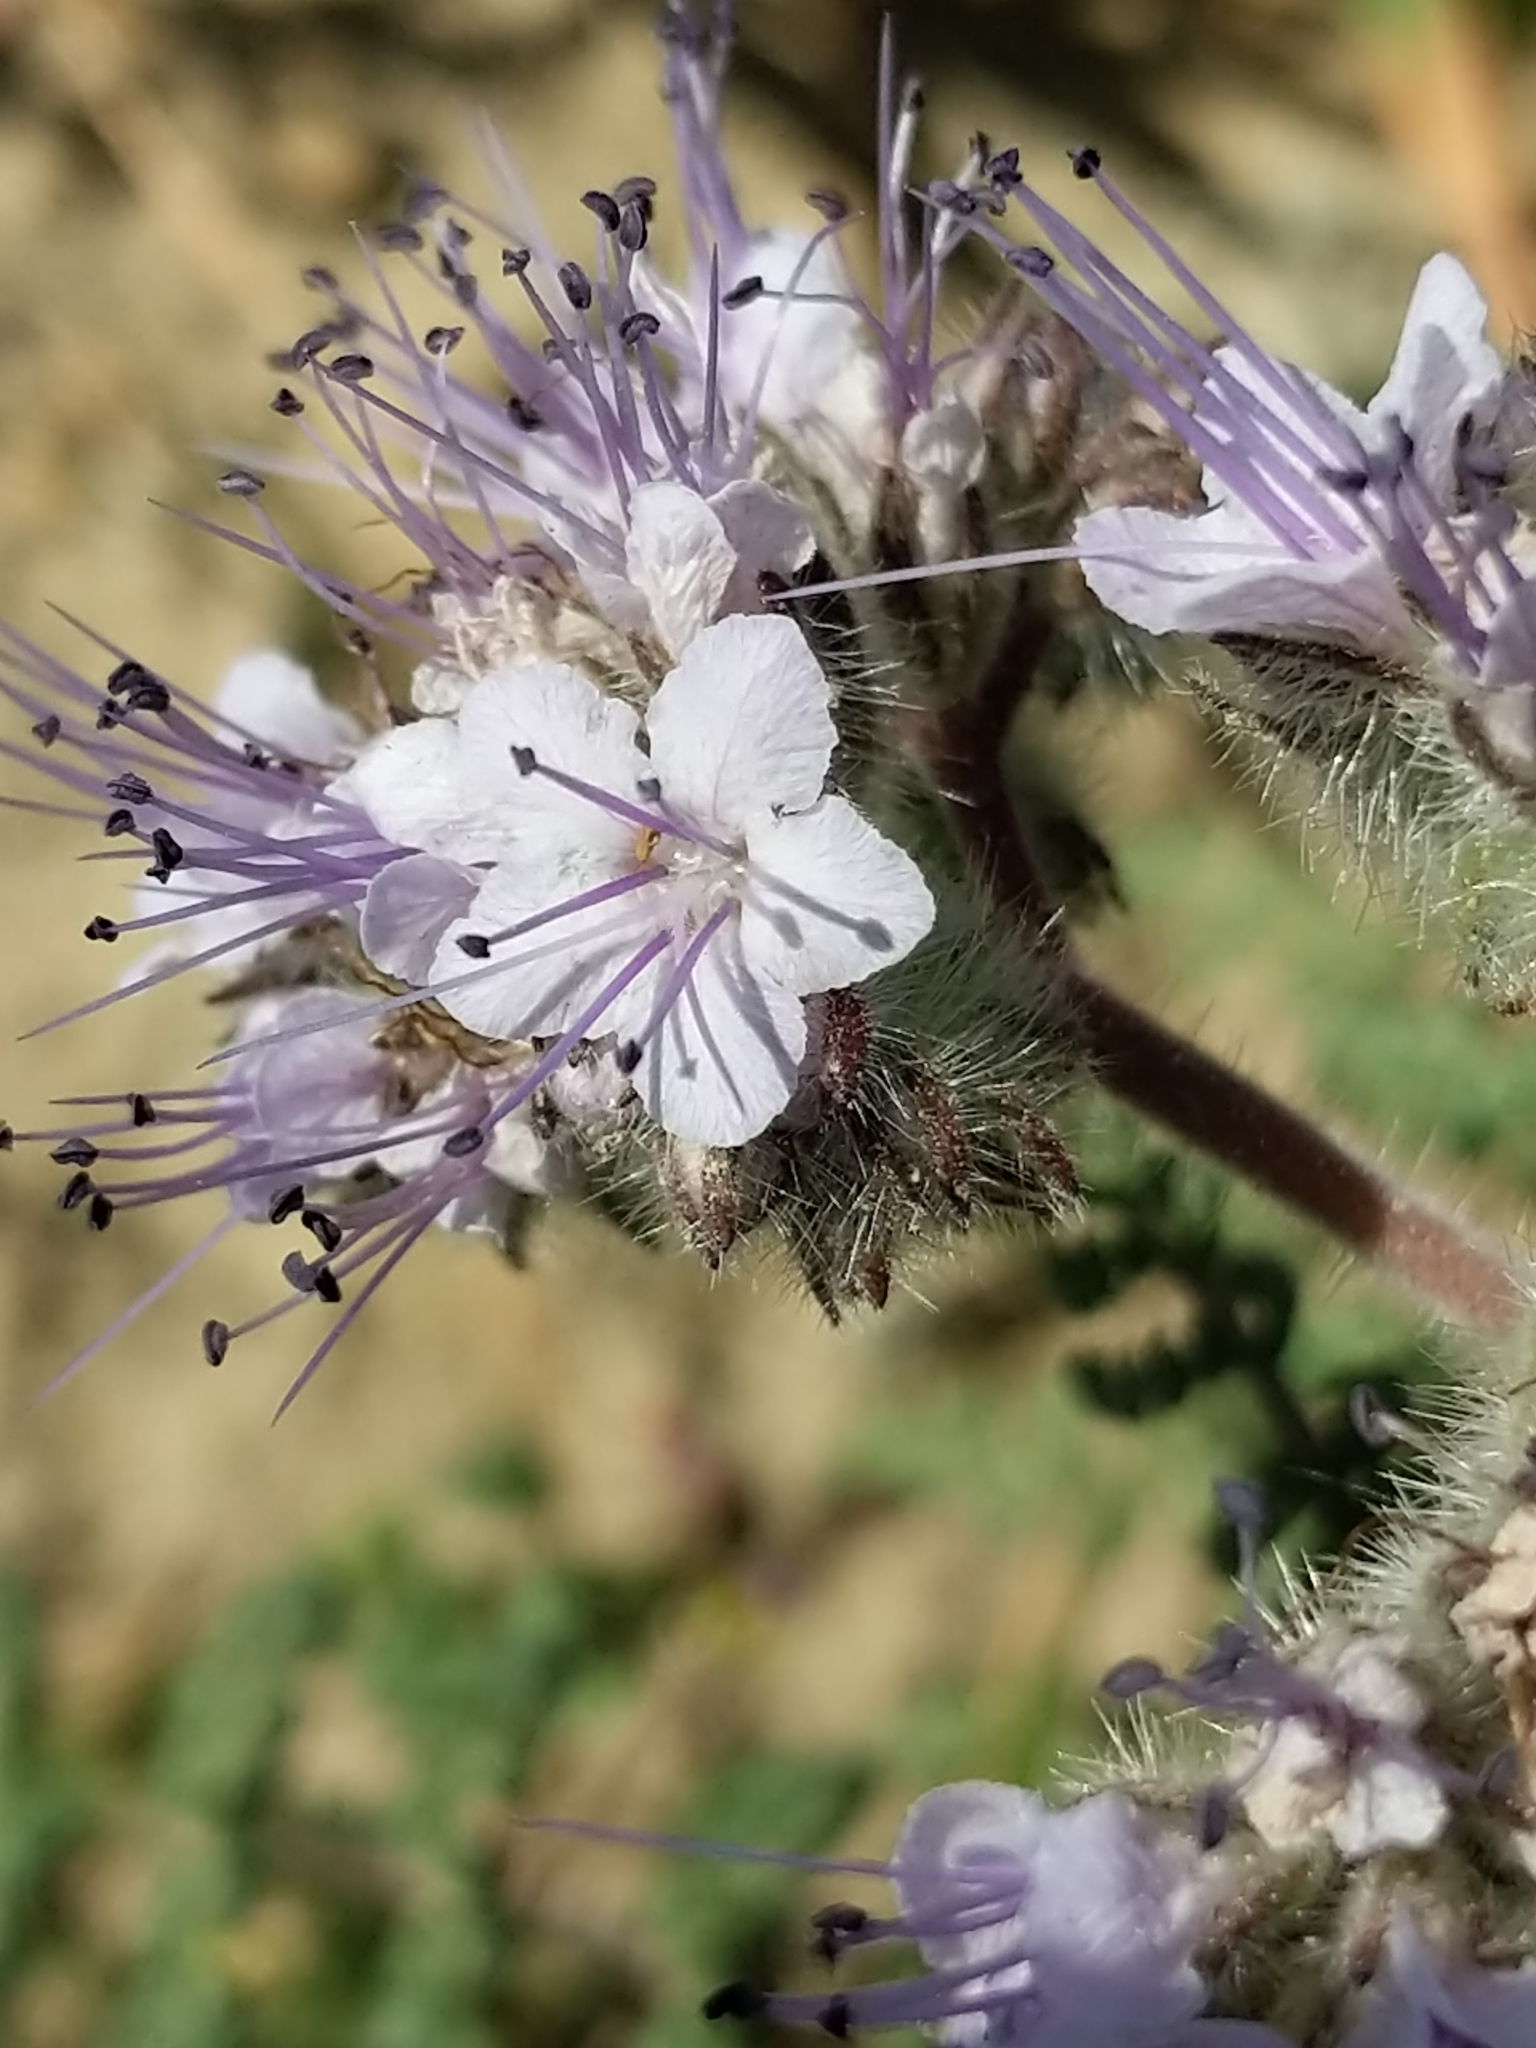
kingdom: Plantae
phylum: Tracheophyta
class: Magnoliopsida
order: Boraginales
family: Hydrophyllaceae
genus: Phacelia
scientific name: Phacelia tanacetifolia
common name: Phacelia
